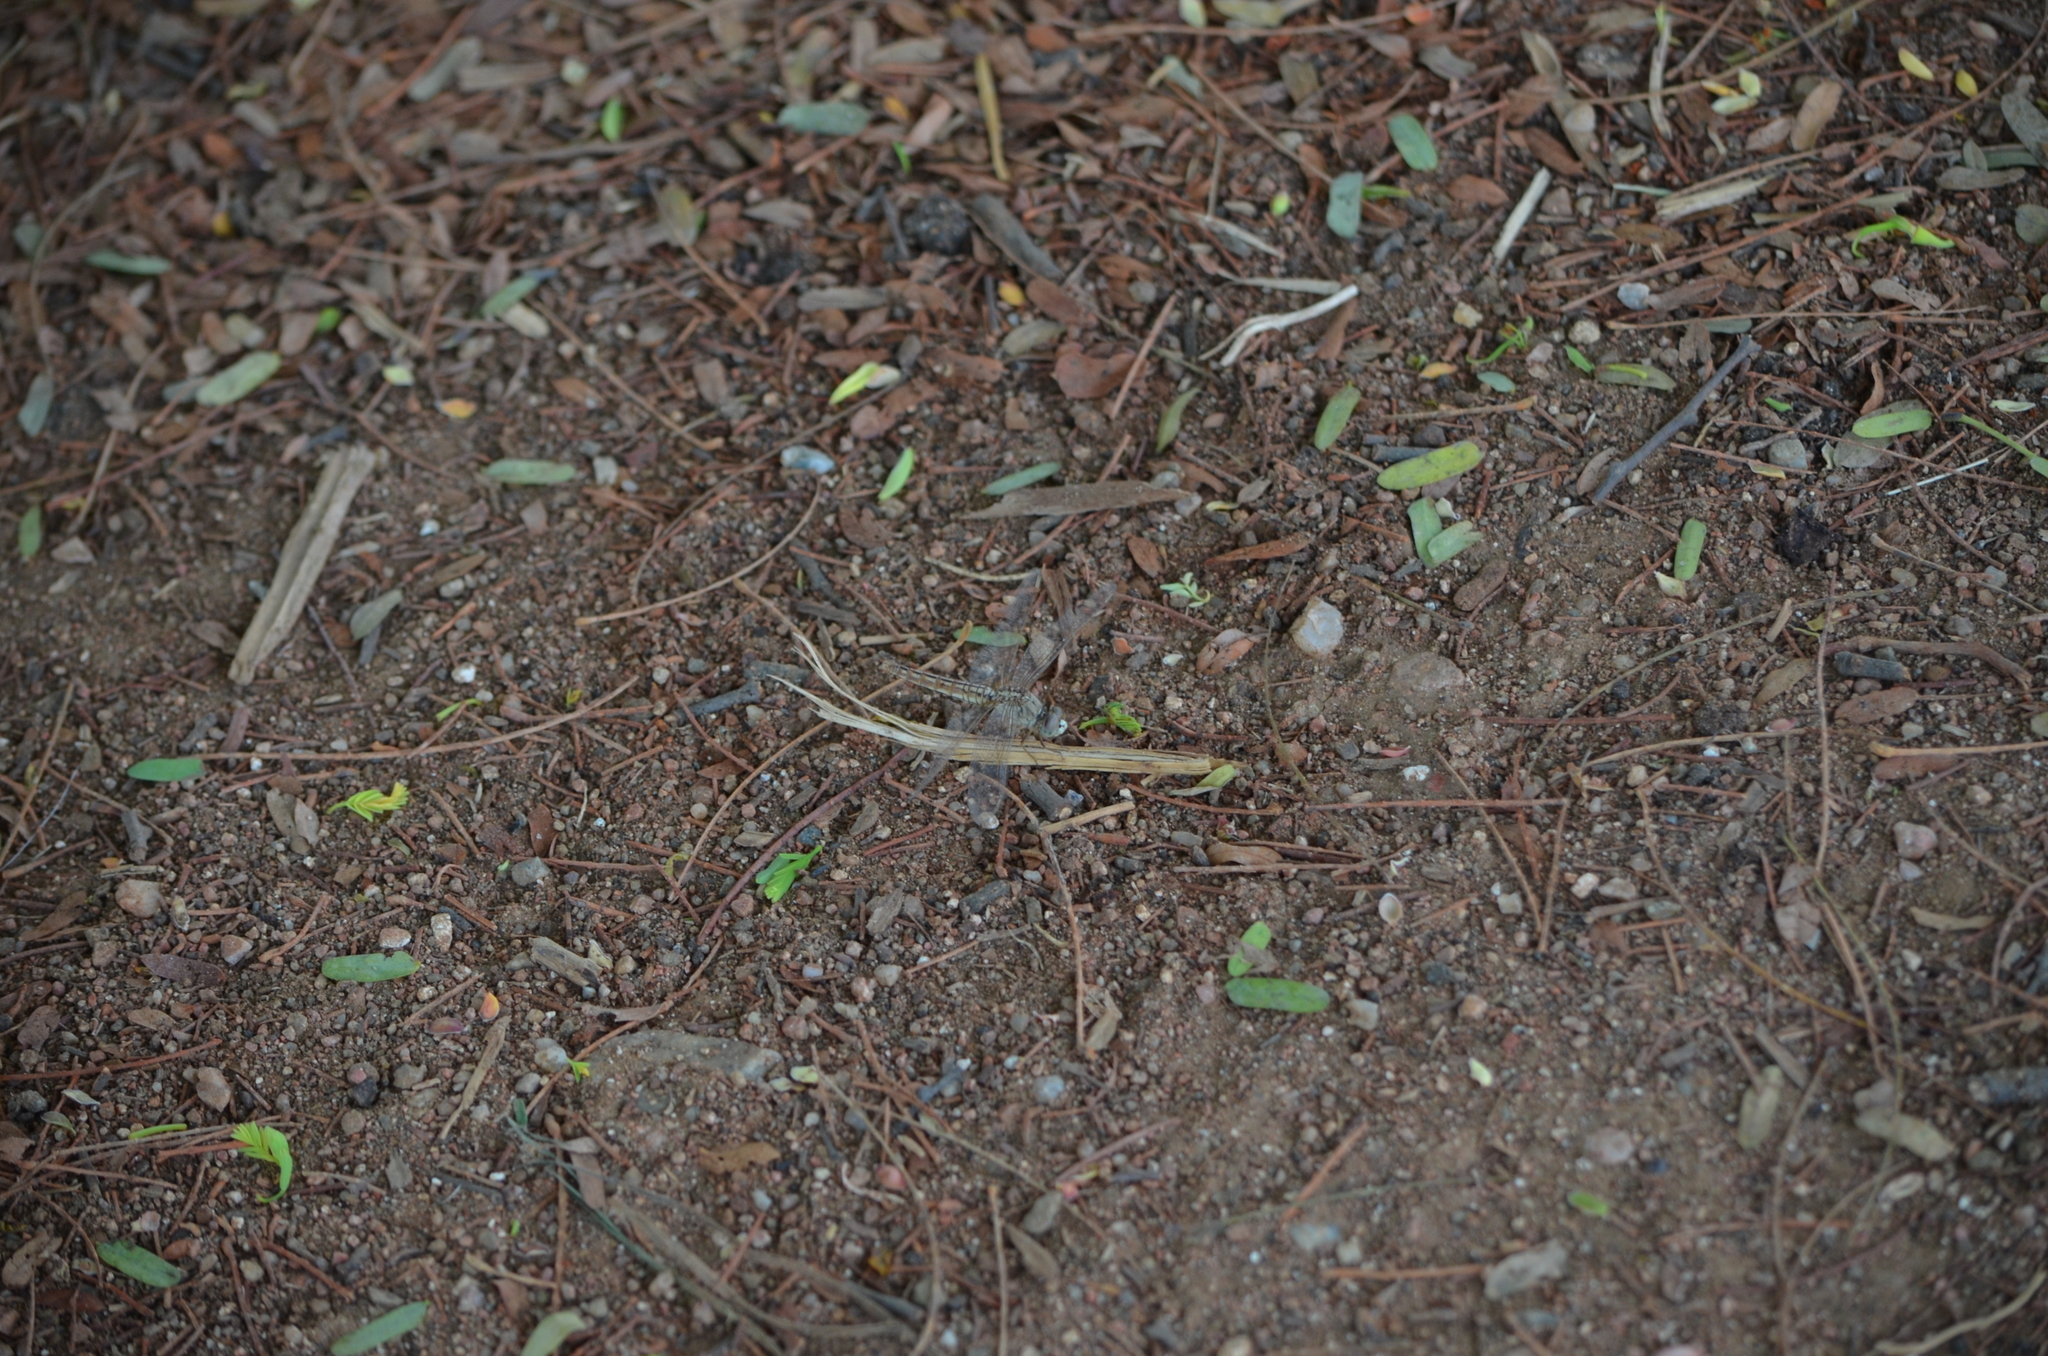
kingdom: Animalia
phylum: Arthropoda
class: Insecta
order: Odonata
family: Libellulidae
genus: Brachythemis
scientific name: Brachythemis contaminata
